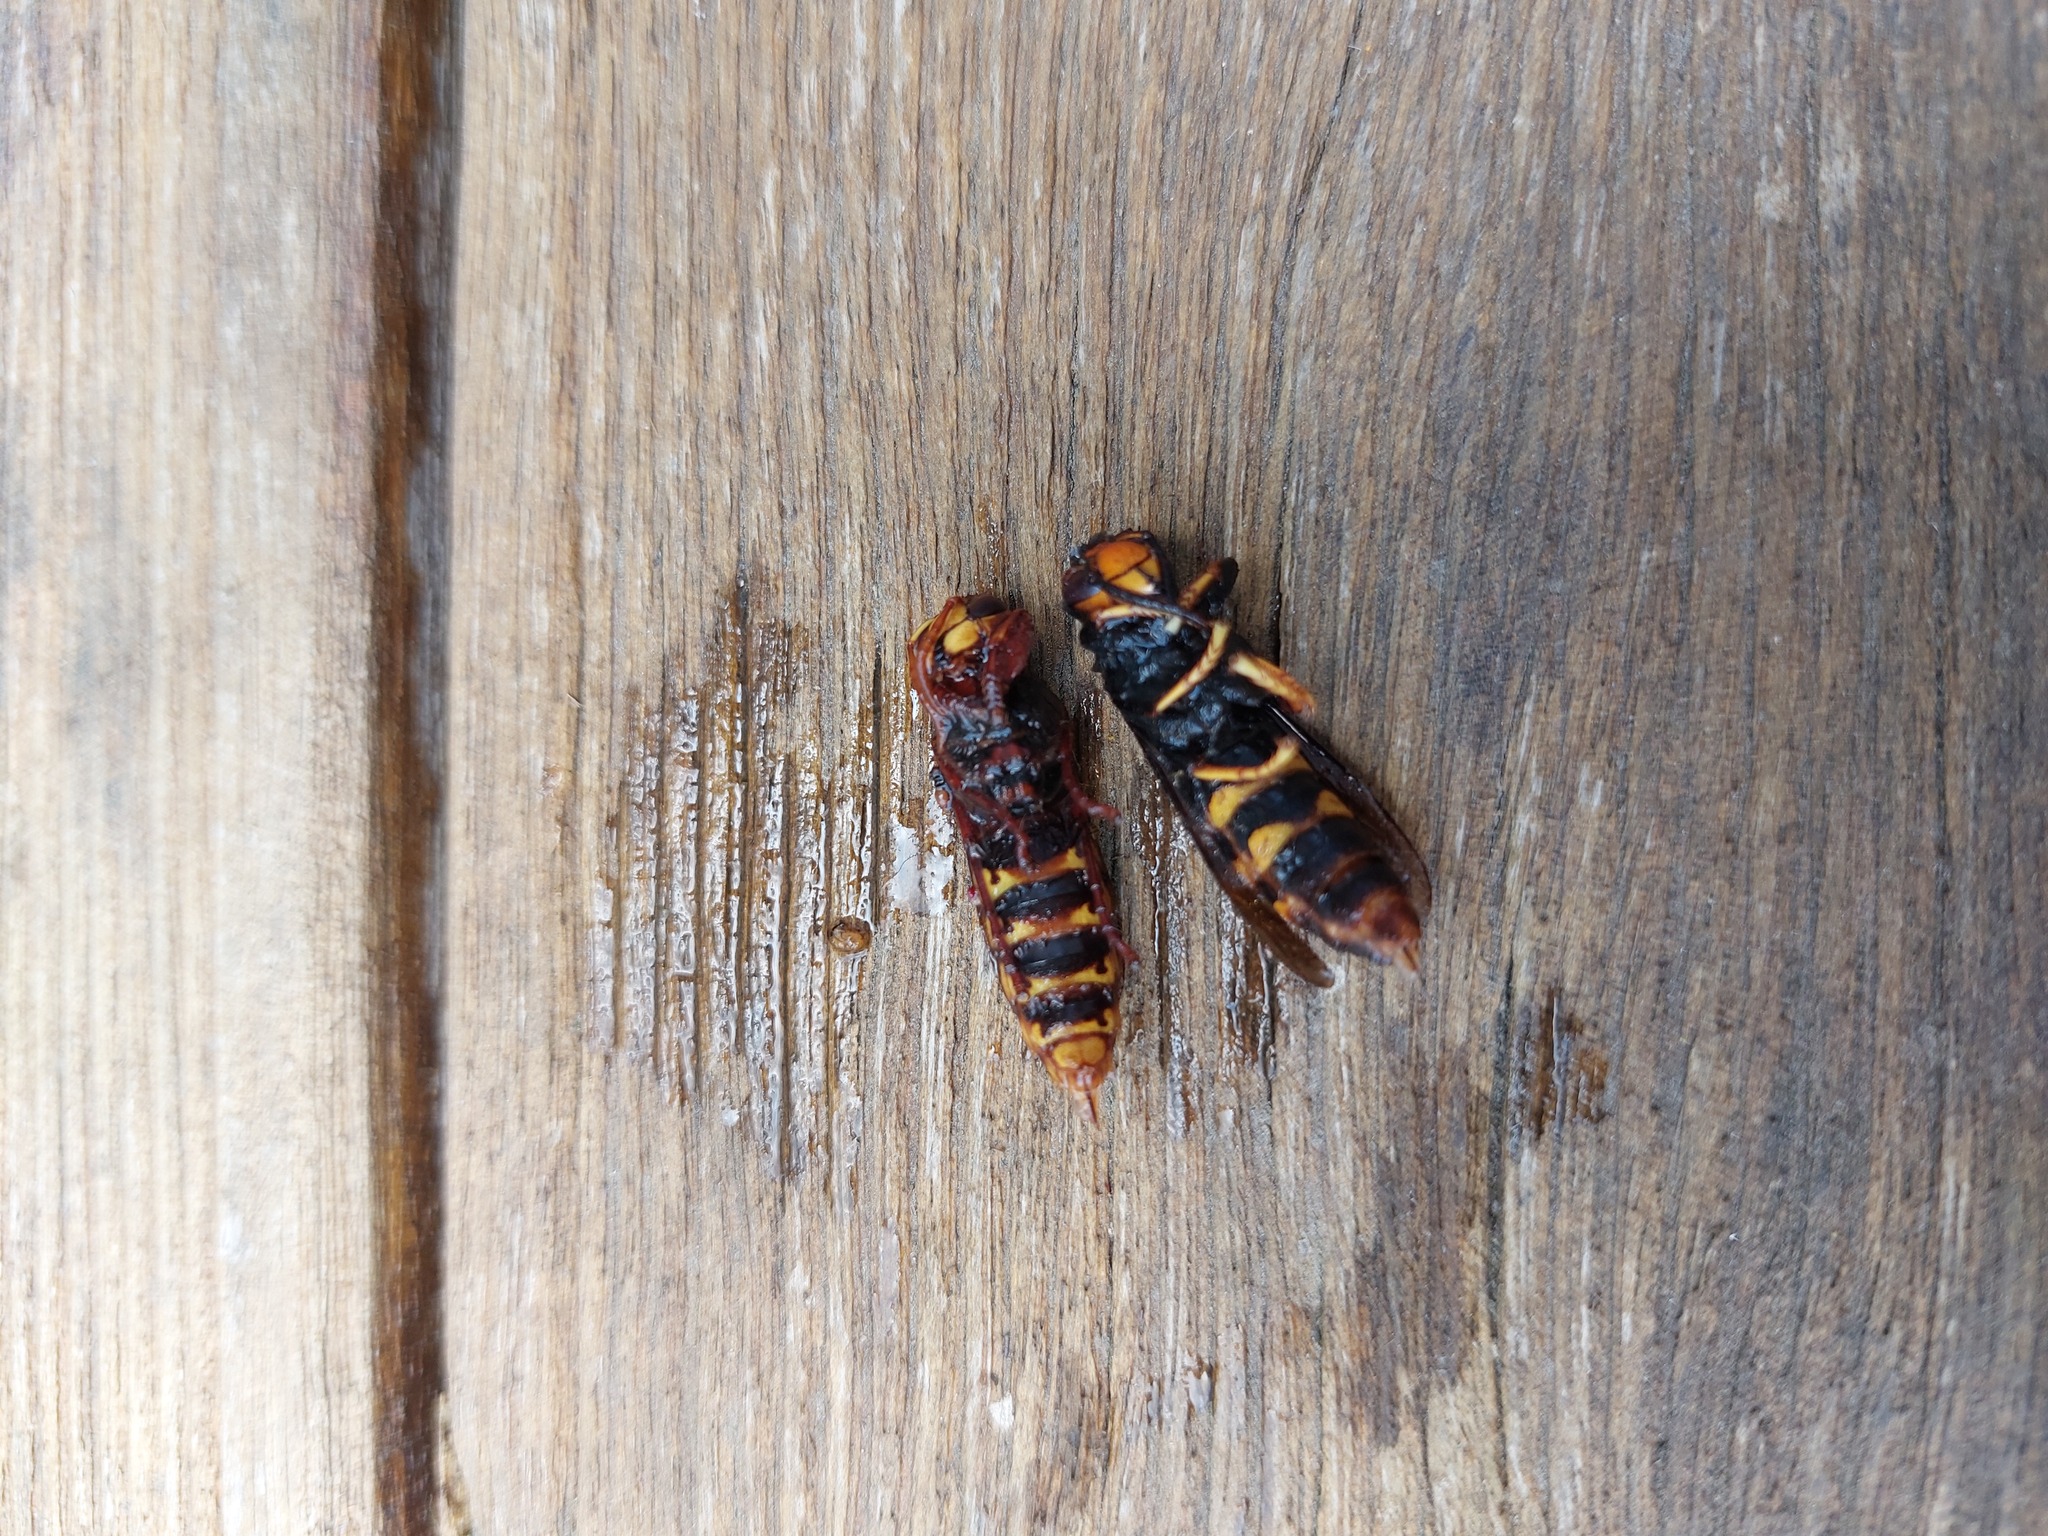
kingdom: Animalia
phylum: Arthropoda
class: Insecta
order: Hymenoptera
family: Vespidae
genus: Vespa
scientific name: Vespa velutina
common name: Asian hornet
